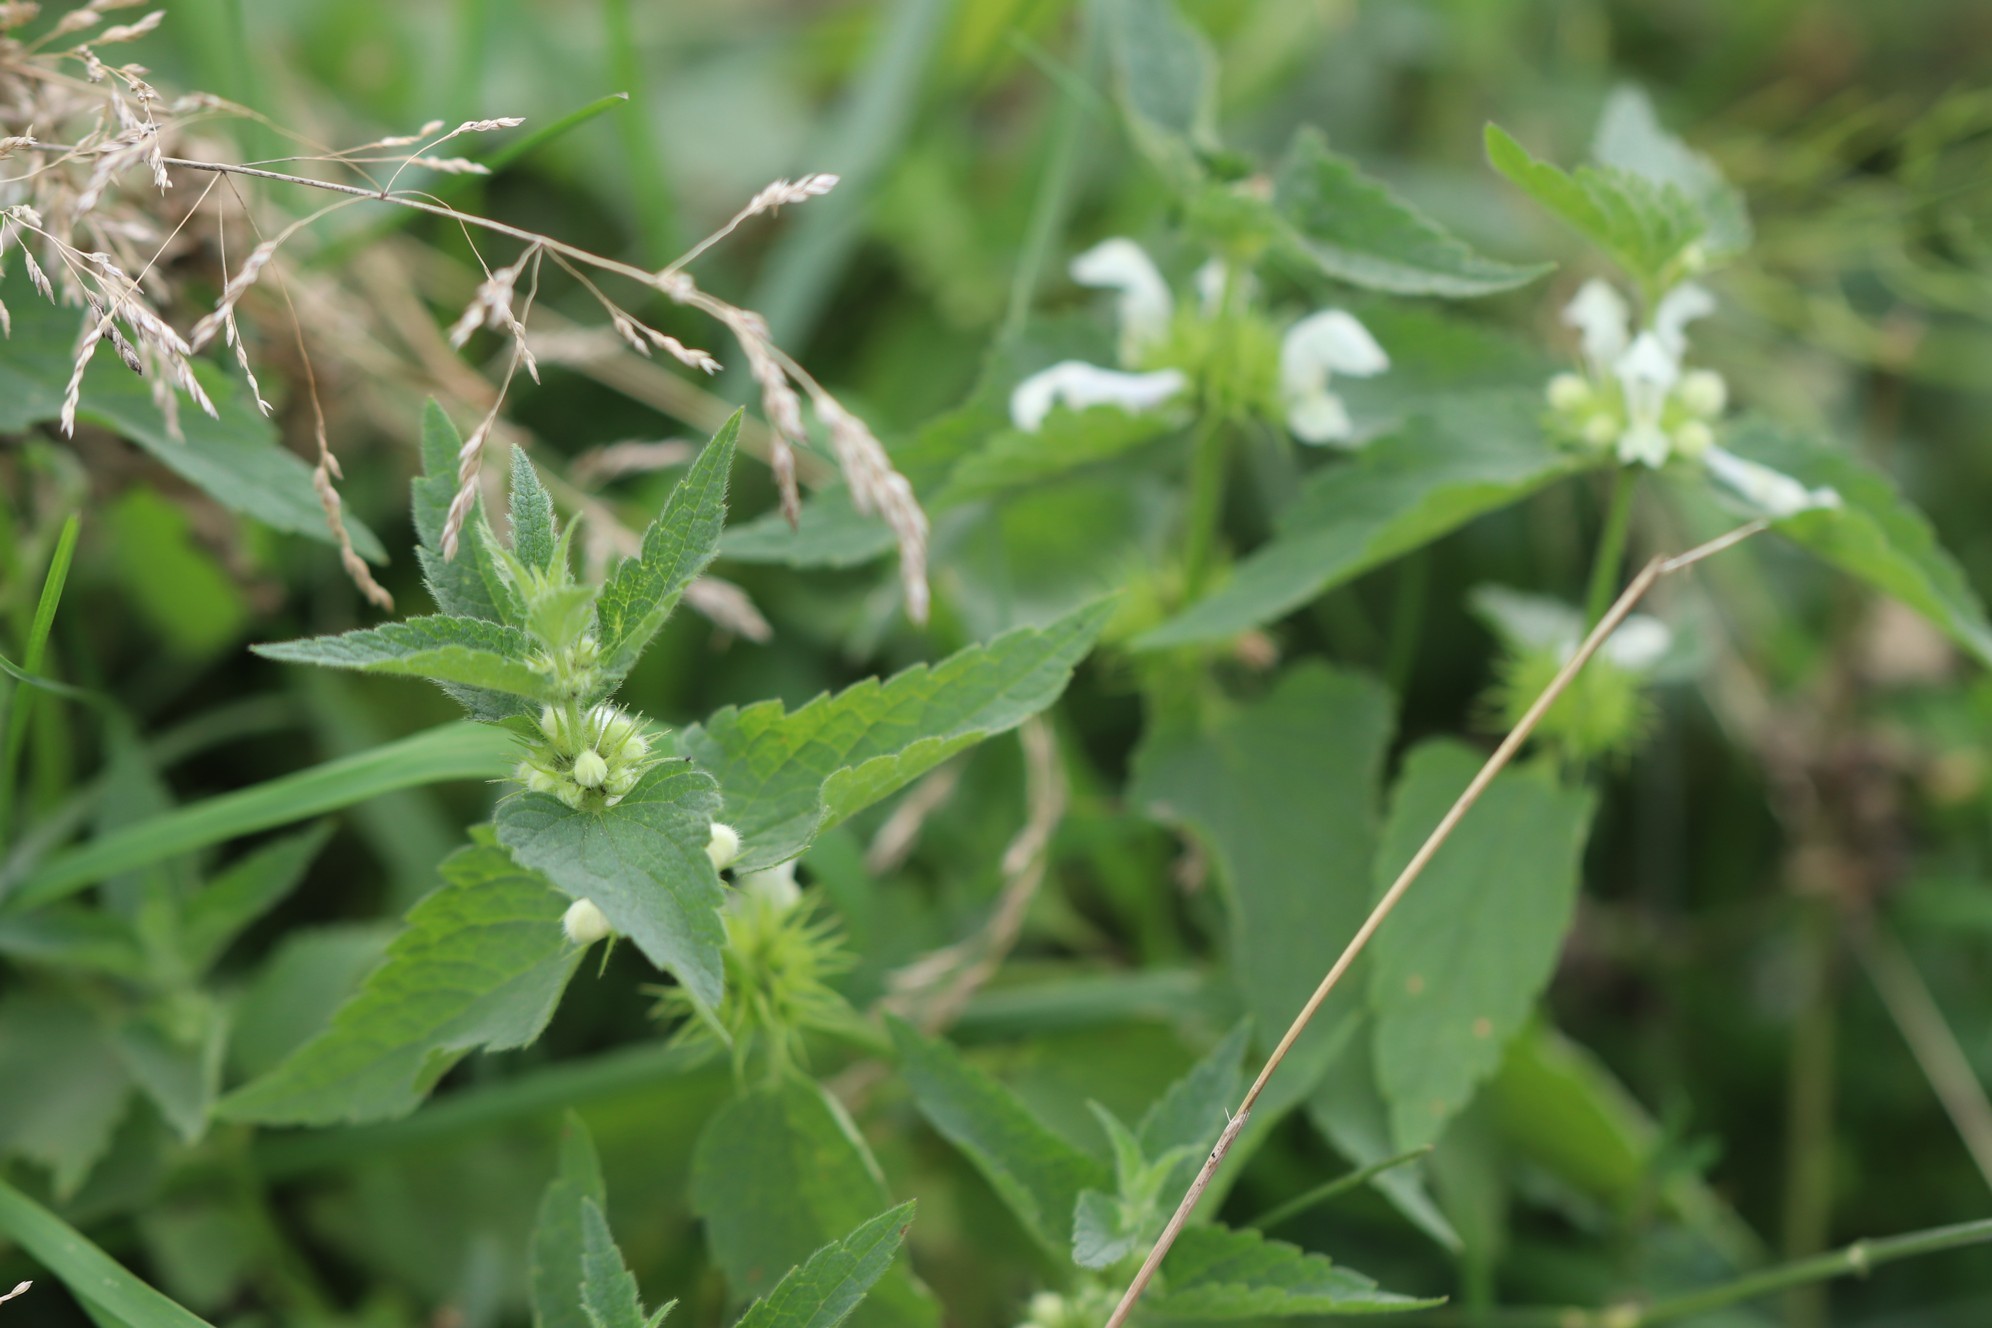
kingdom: Plantae
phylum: Tracheophyta
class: Magnoliopsida
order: Lamiales
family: Lamiaceae
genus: Lamium
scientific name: Lamium album
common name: White dead-nettle
